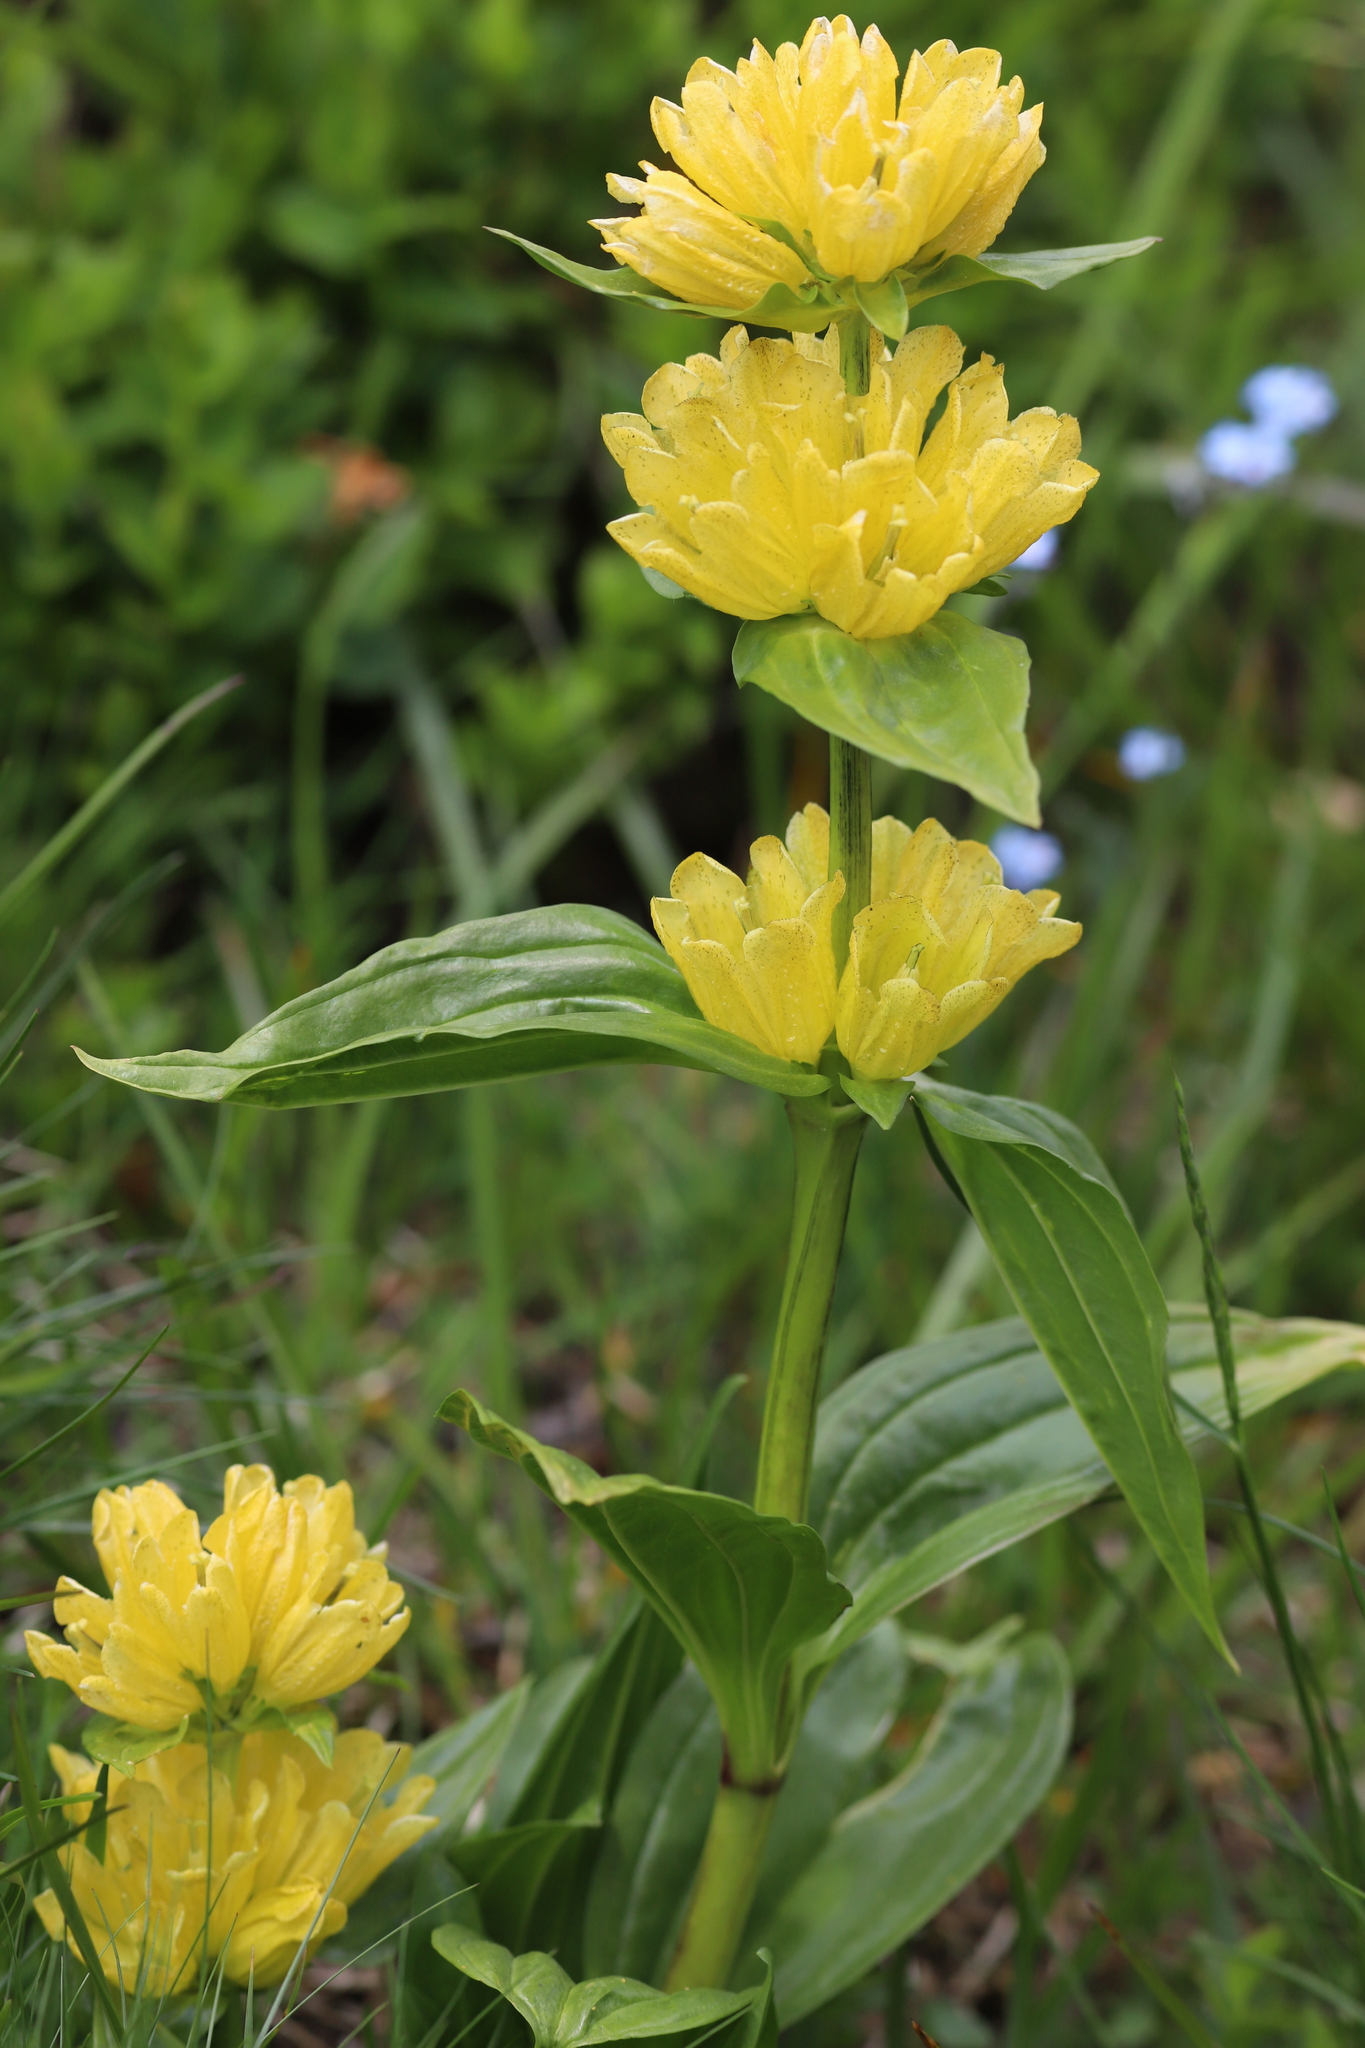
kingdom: Plantae
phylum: Tracheophyta
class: Magnoliopsida
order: Gentianales
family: Gentianaceae
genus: Gentiana
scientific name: Gentiana punctata
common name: Spotted gentian
